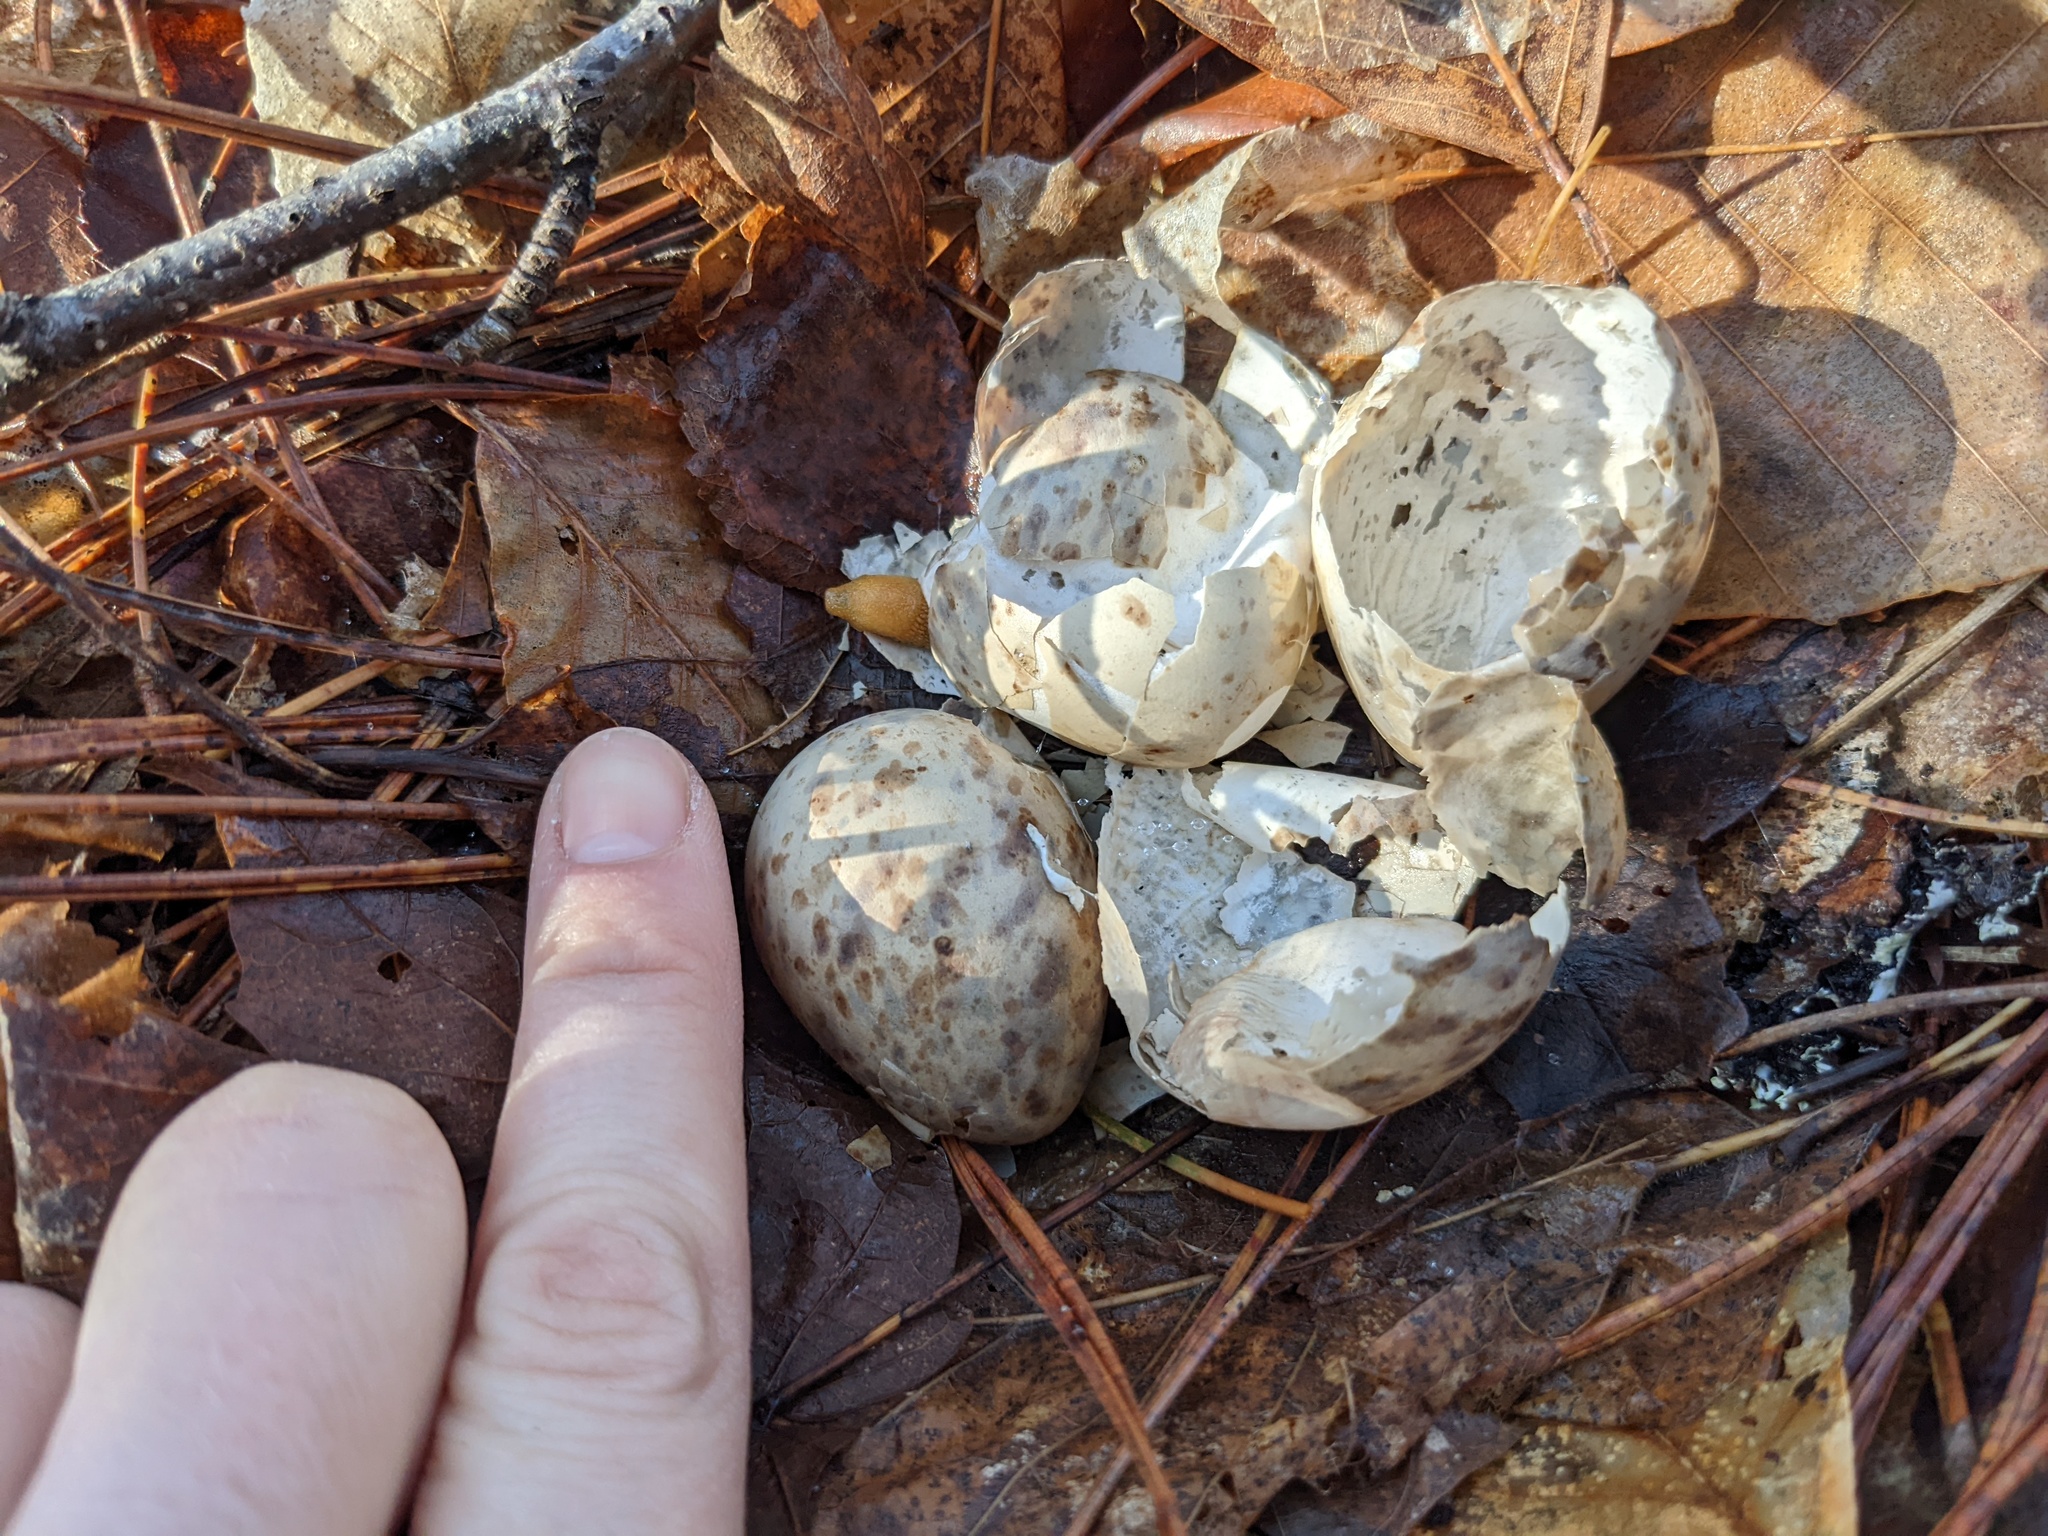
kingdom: Animalia
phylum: Chordata
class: Aves
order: Charadriiformes
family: Scolopacidae
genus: Scolopax
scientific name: Scolopax minor
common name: American woodcock
